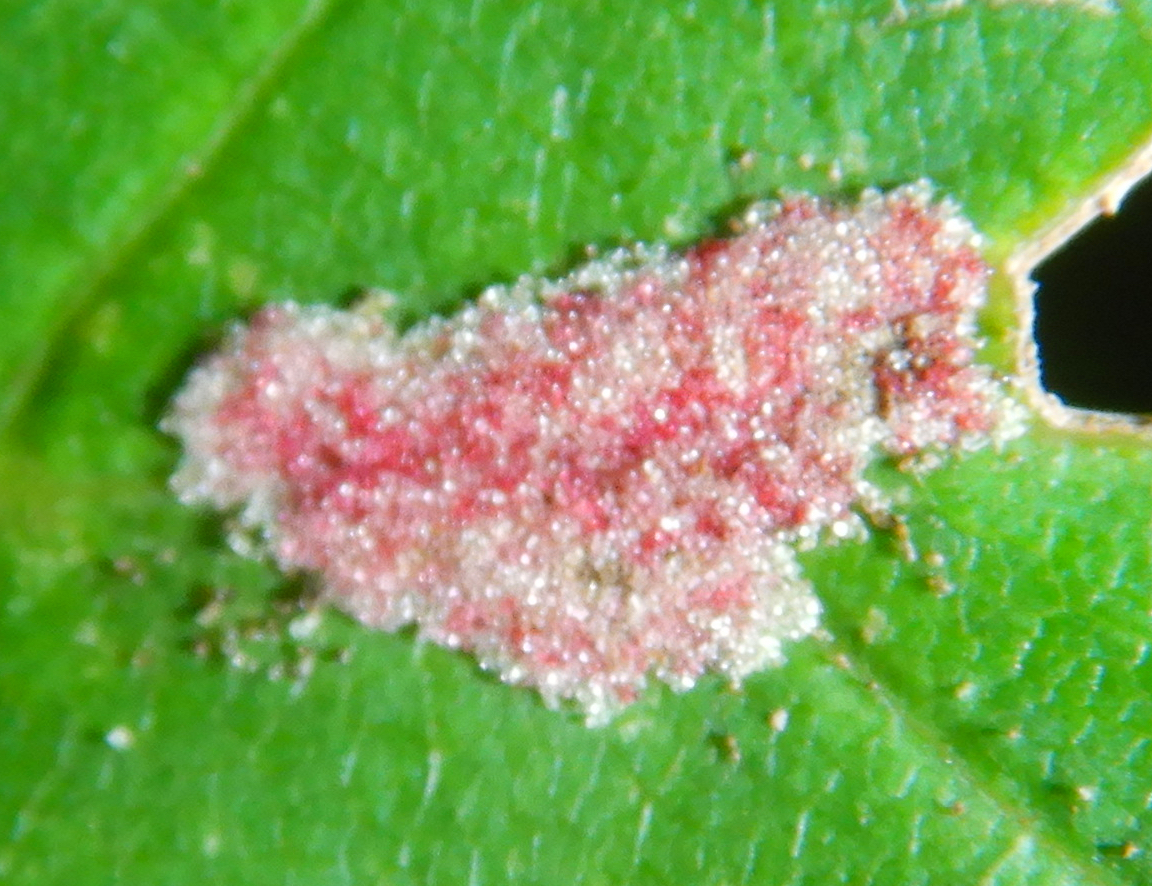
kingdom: Animalia
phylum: Arthropoda
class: Arachnida
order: Trombidiformes
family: Eriophyidae
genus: Aculus
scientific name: Aculus
